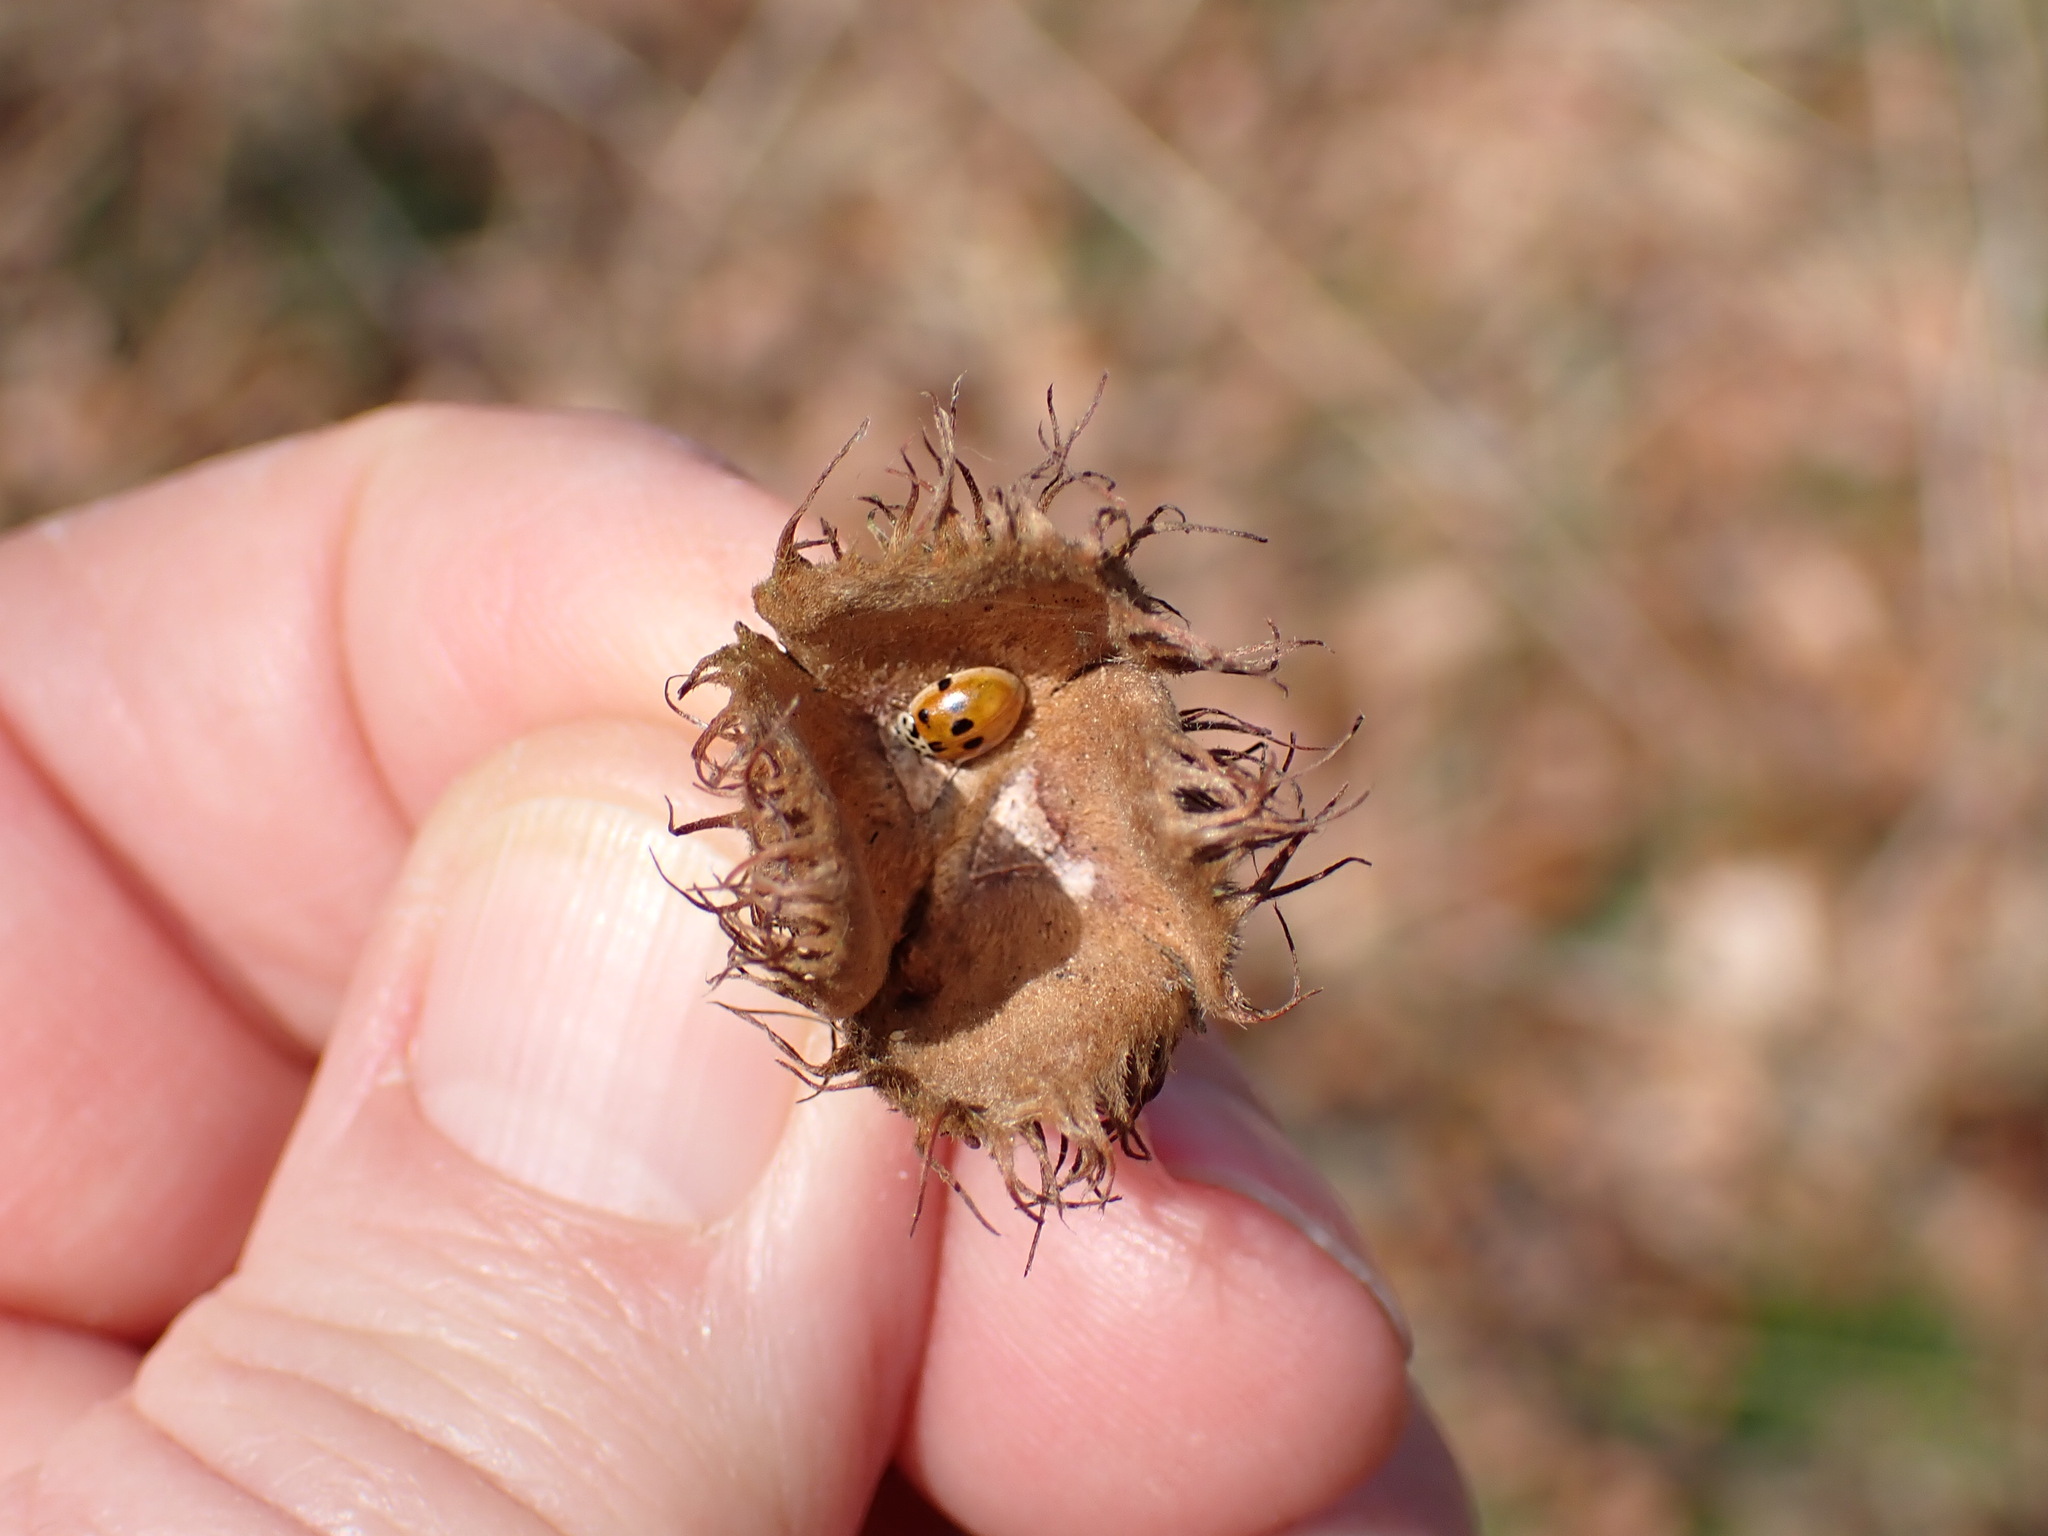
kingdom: Animalia
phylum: Arthropoda
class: Insecta
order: Coleoptera
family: Coccinellidae
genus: Adalia
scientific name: Adalia decempunctata
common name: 10-spot ladybird
